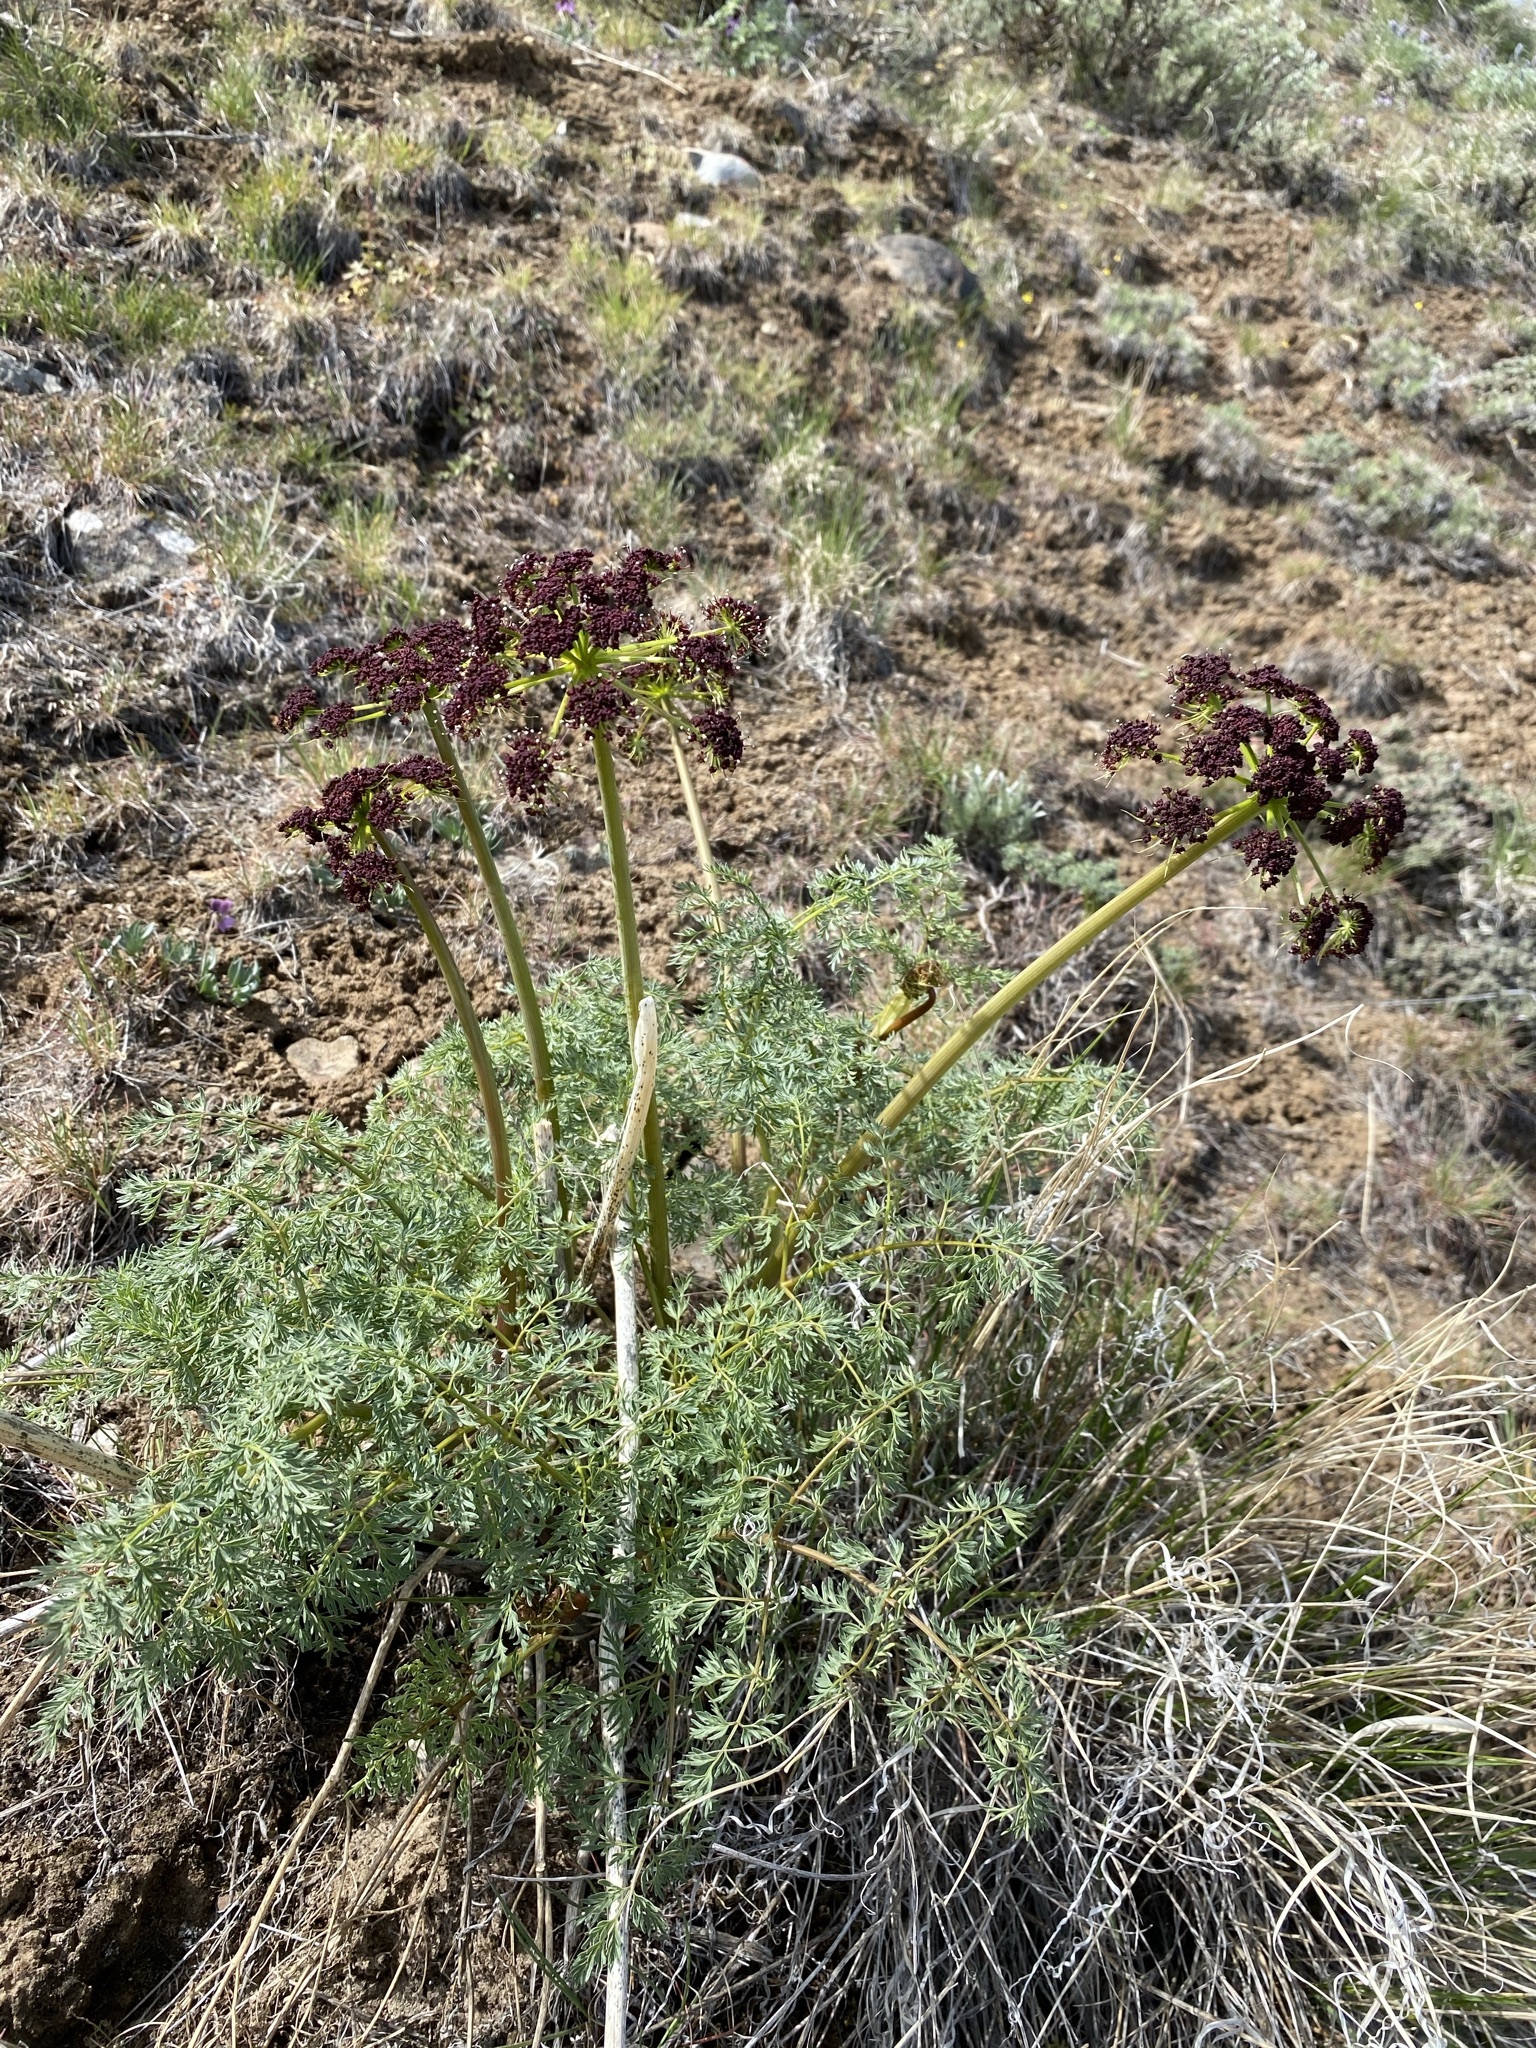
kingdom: Plantae
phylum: Tracheophyta
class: Magnoliopsida
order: Apiales
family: Apiaceae
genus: Lomatium
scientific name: Lomatium dissectum
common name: Lomatium
